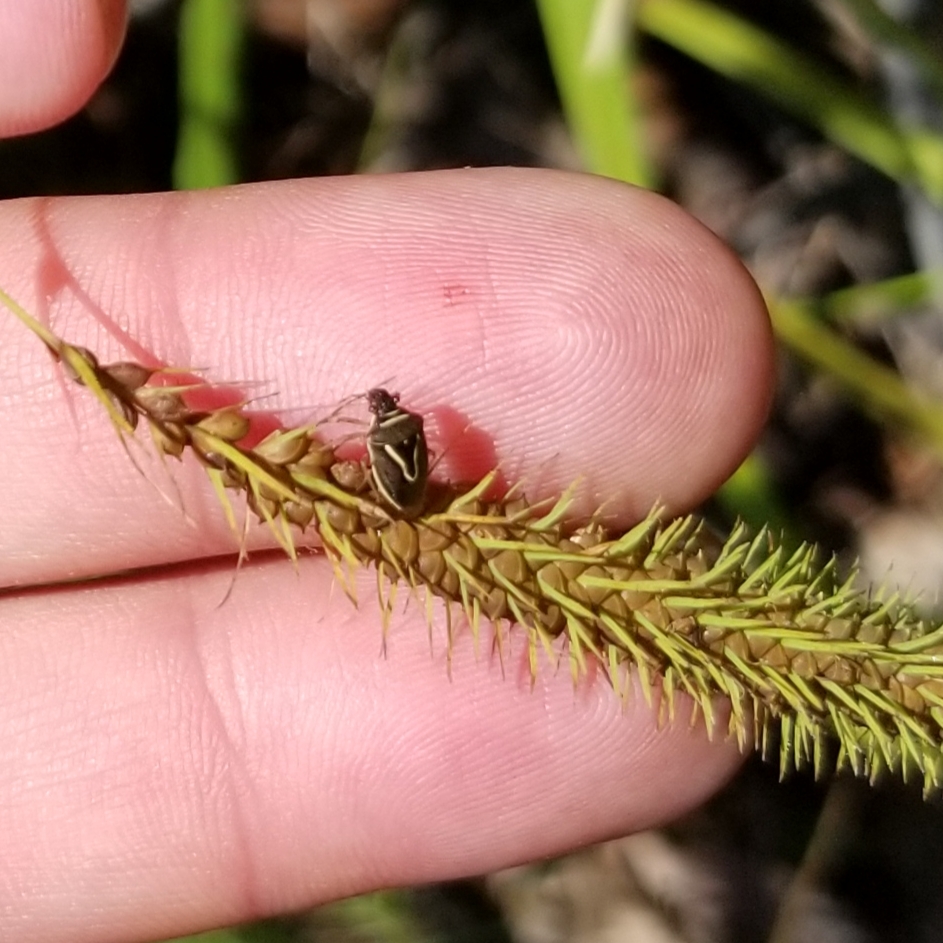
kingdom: Plantae
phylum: Tracheophyta
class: Liliopsida
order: Poales
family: Cyperaceae
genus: Carex
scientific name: Carex crinita
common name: Fringed sedge
